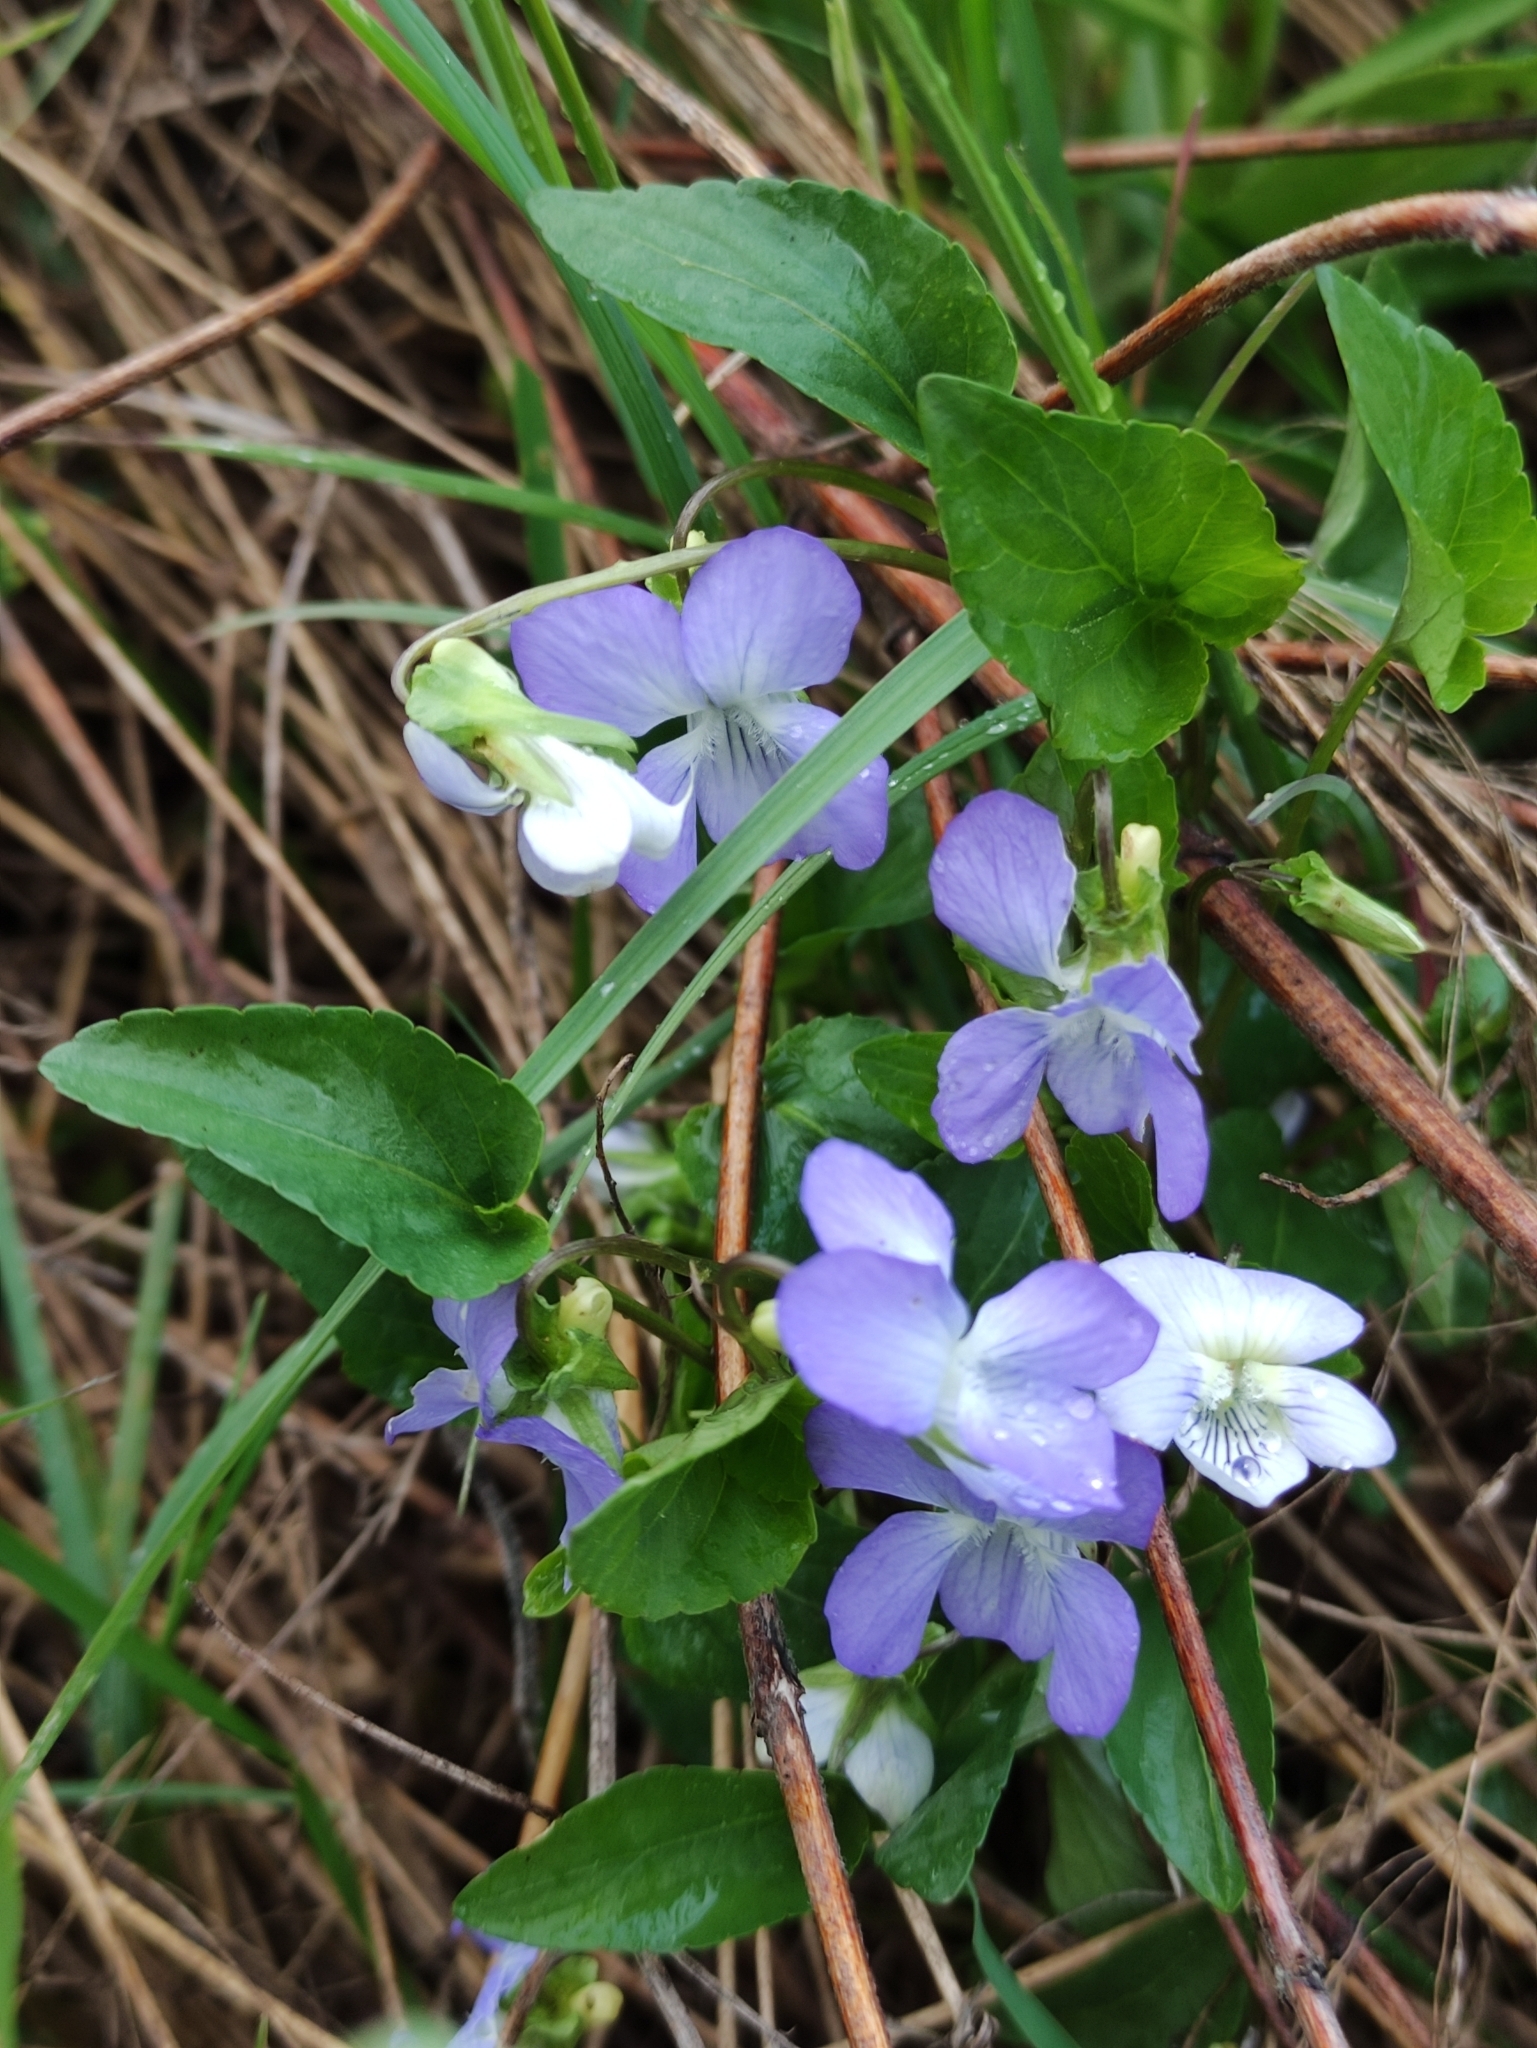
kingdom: Plantae
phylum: Tracheophyta
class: Magnoliopsida
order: Malpighiales
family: Violaceae
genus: Viola
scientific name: Viola canina
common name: Heath dog-violet
